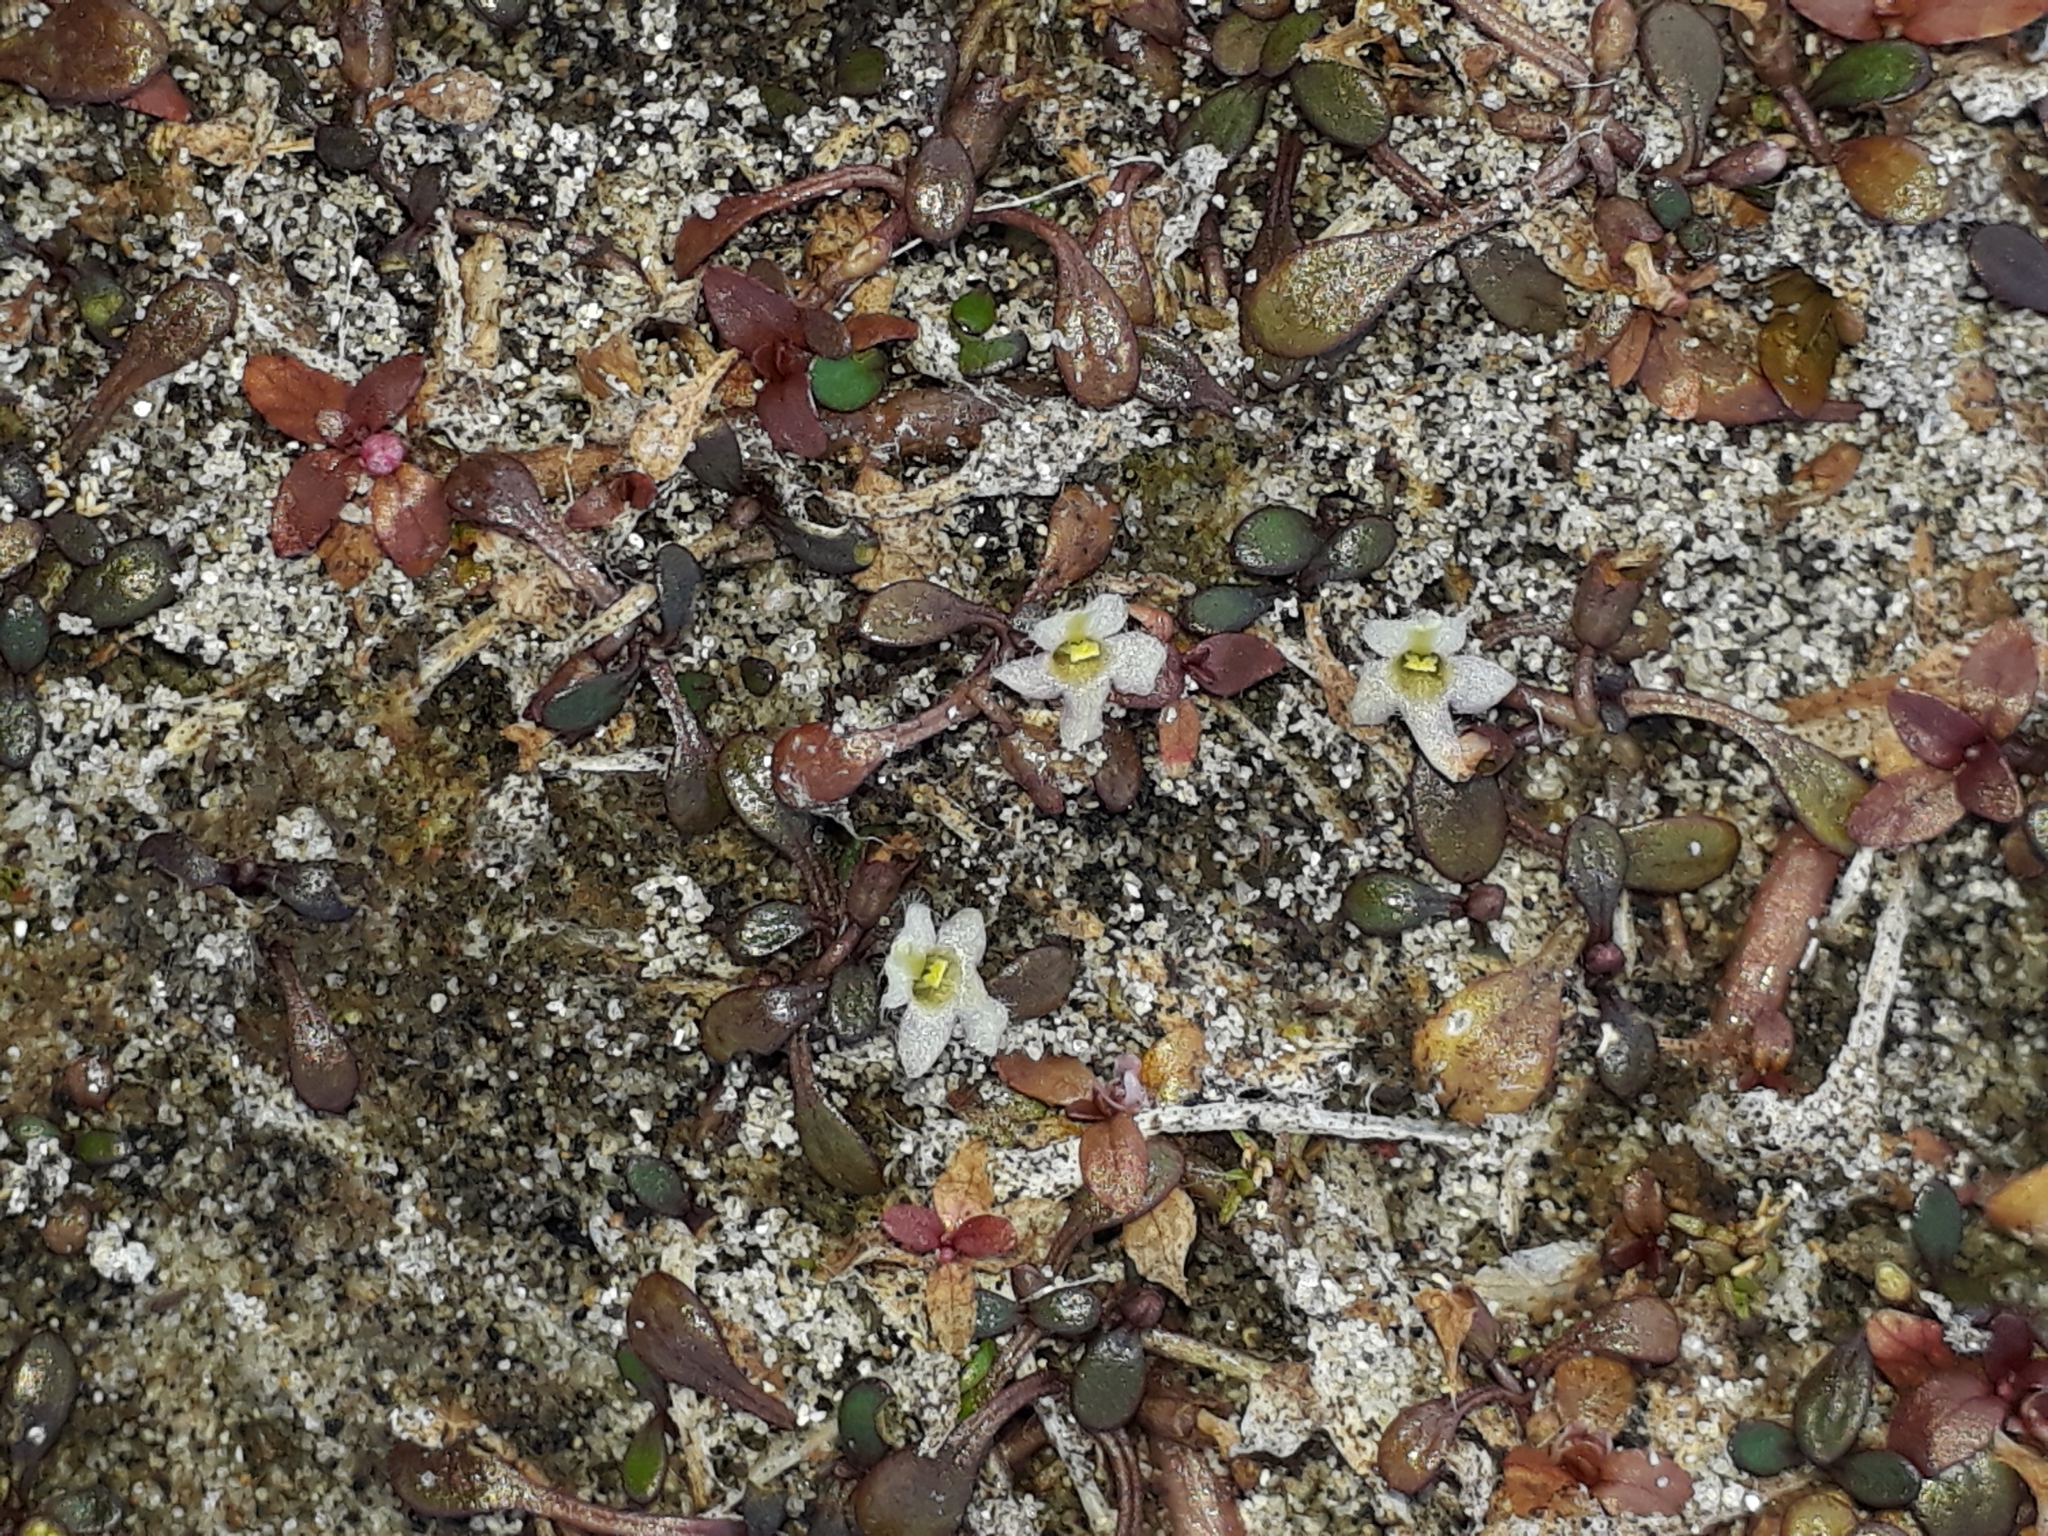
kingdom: Plantae
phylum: Tracheophyta
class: Magnoliopsida
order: Lamiales
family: Phrymaceae
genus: Glossostigma
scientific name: Glossostigma elatinoides
